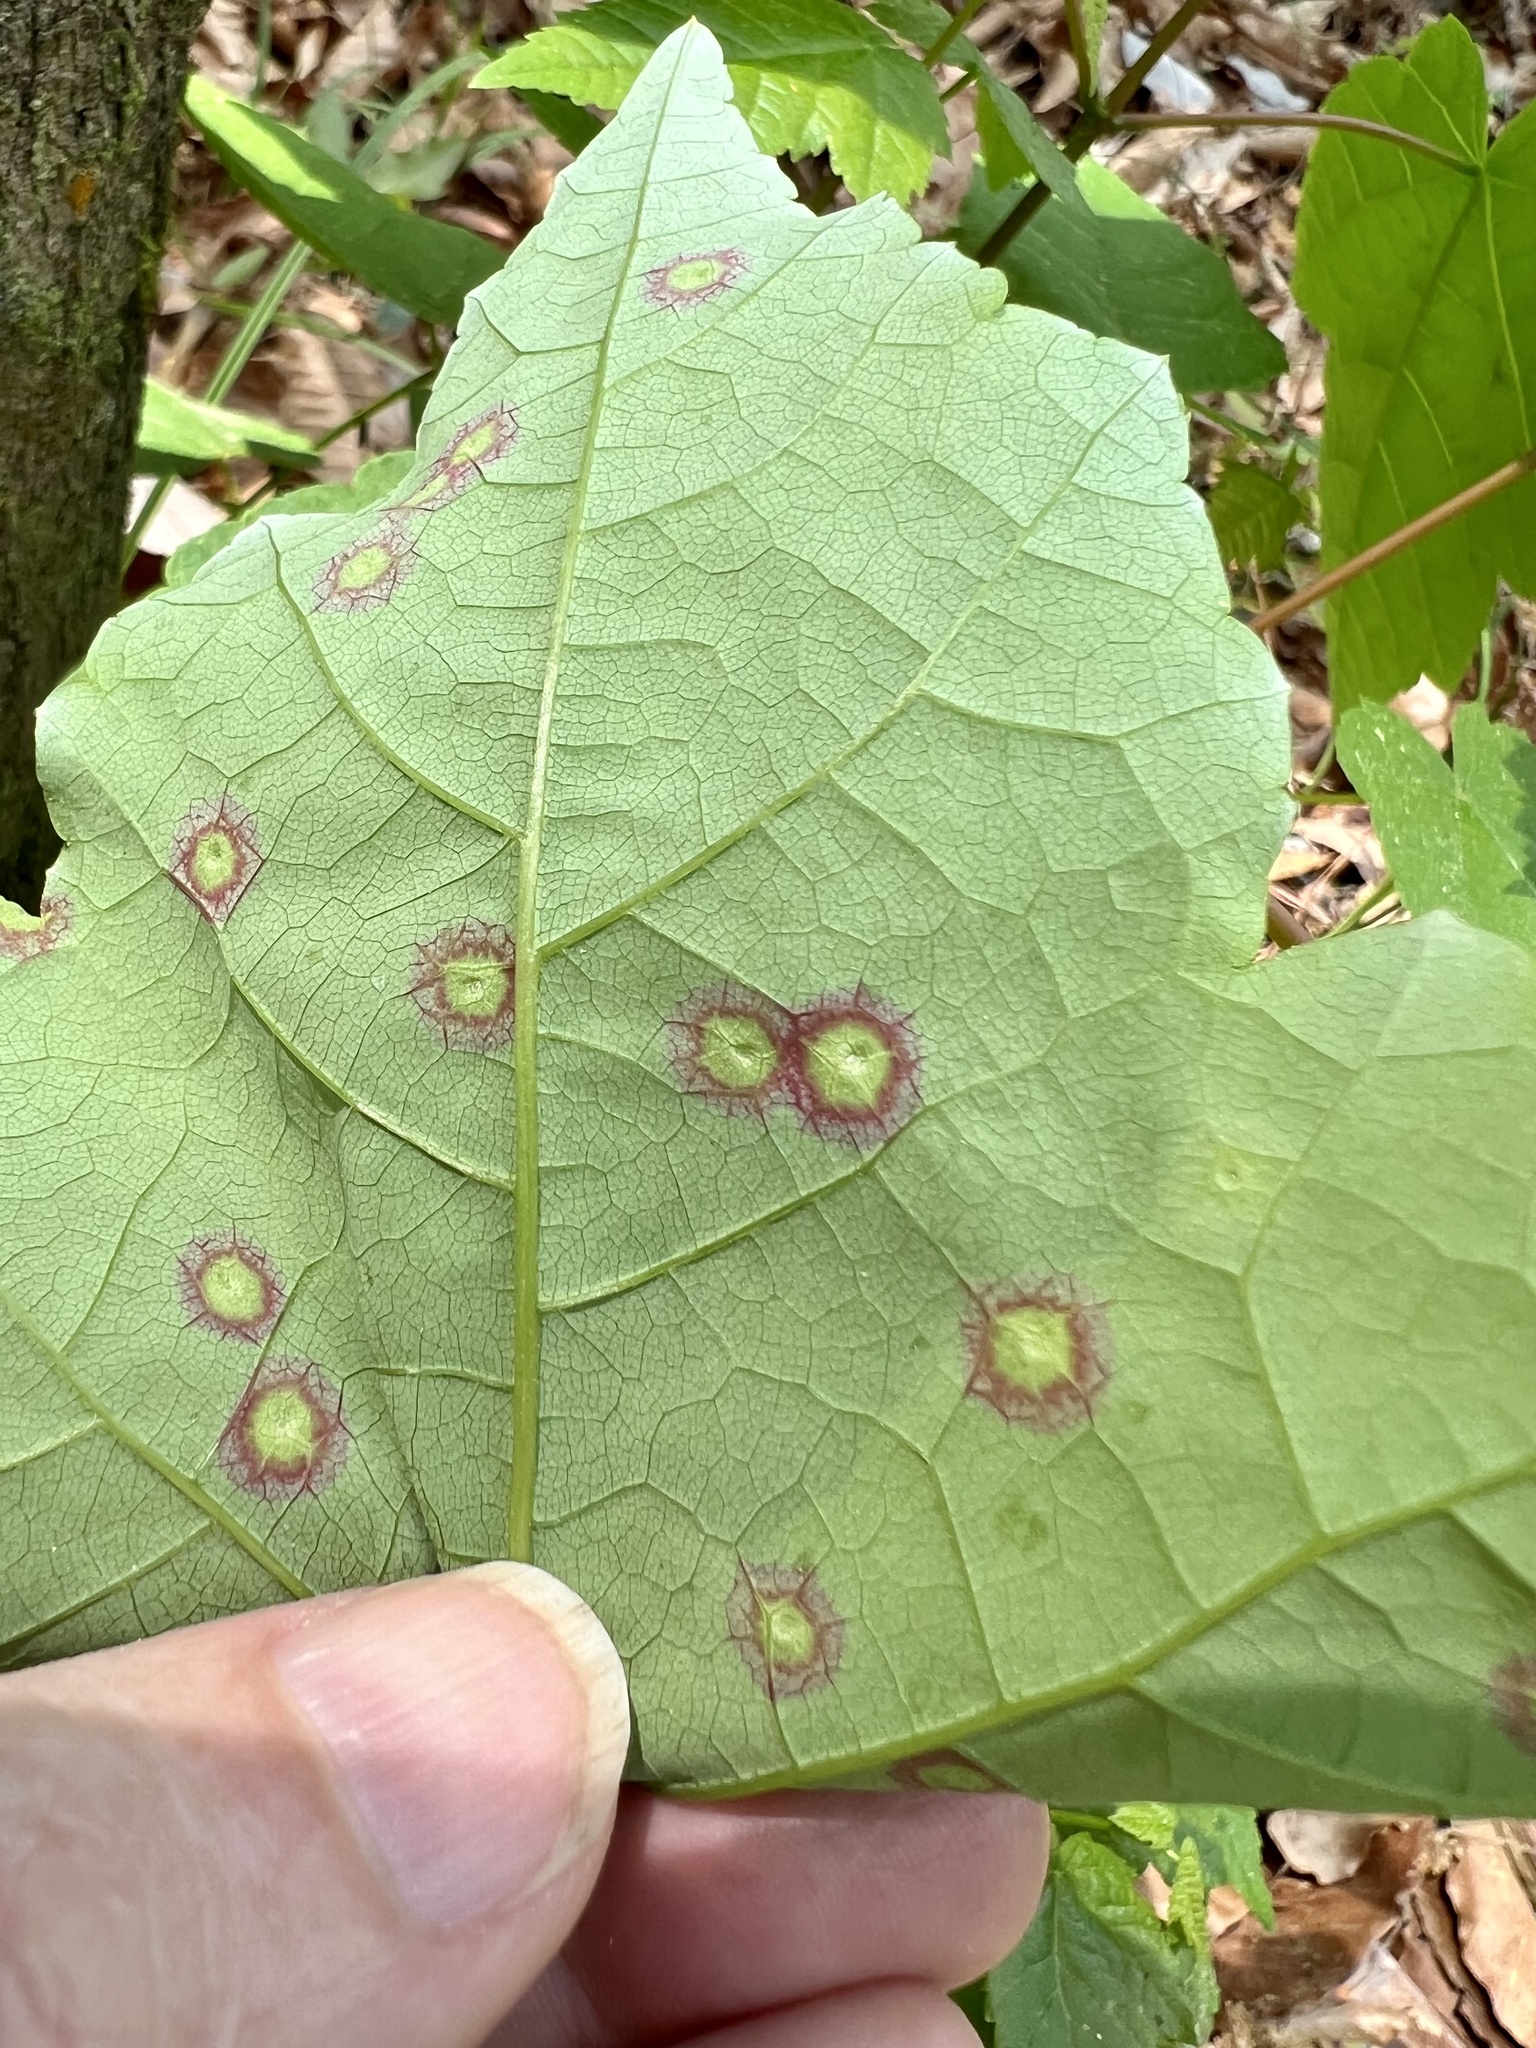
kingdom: Animalia
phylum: Arthropoda
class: Insecta
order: Diptera
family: Cecidomyiidae
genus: Acericecis
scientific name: Acericecis ocellaris
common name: Ocellate gall midge
